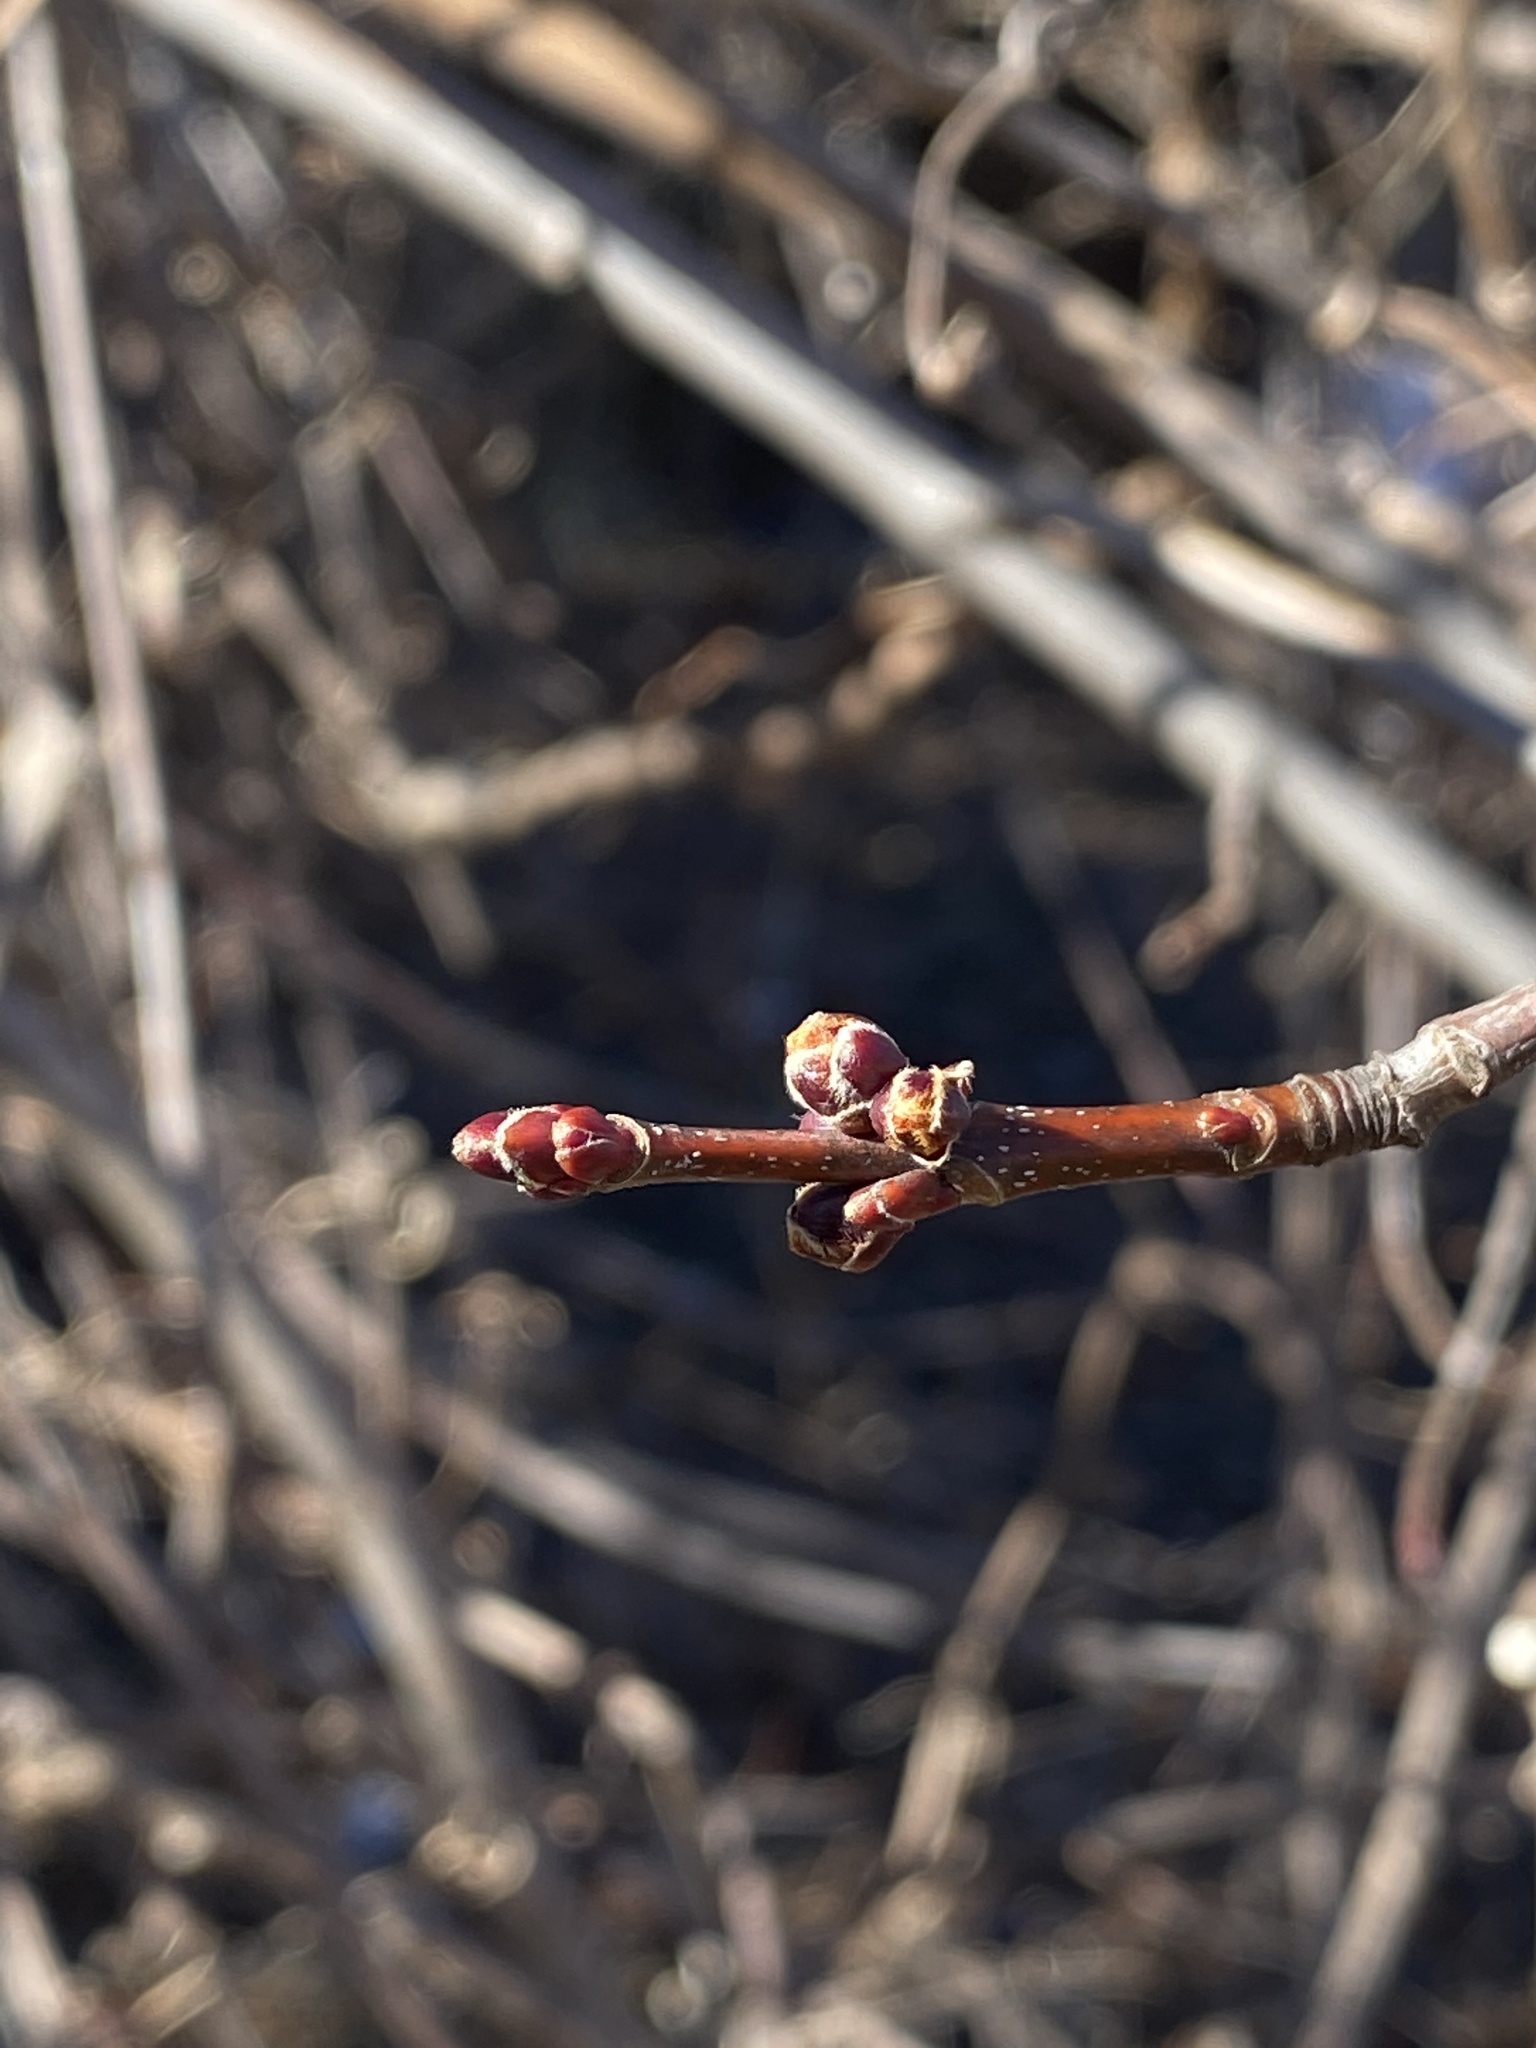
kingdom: Plantae
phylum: Tracheophyta
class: Magnoliopsida
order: Sapindales
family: Sapindaceae
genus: Acer
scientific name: Acer saccharinum
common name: Silver maple
